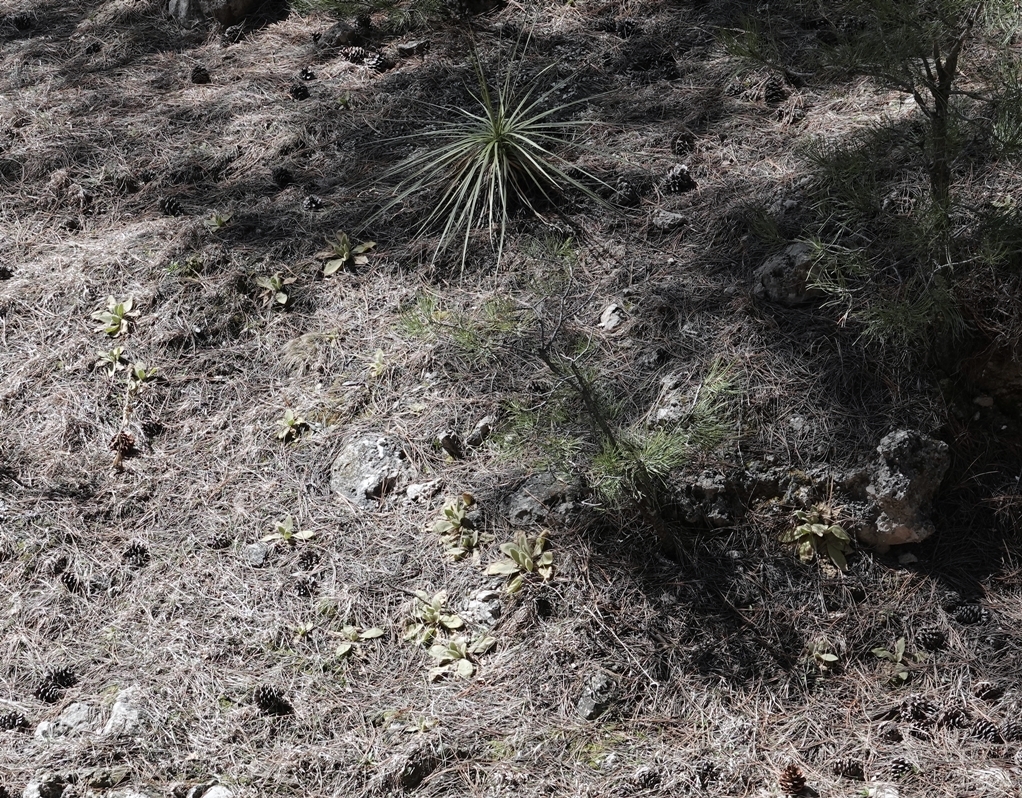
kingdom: Plantae
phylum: Tracheophyta
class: Magnoliopsida
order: Lamiales
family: Scrophulariaceae
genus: Verbascum
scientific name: Verbascum thapsus
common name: Common mullein
